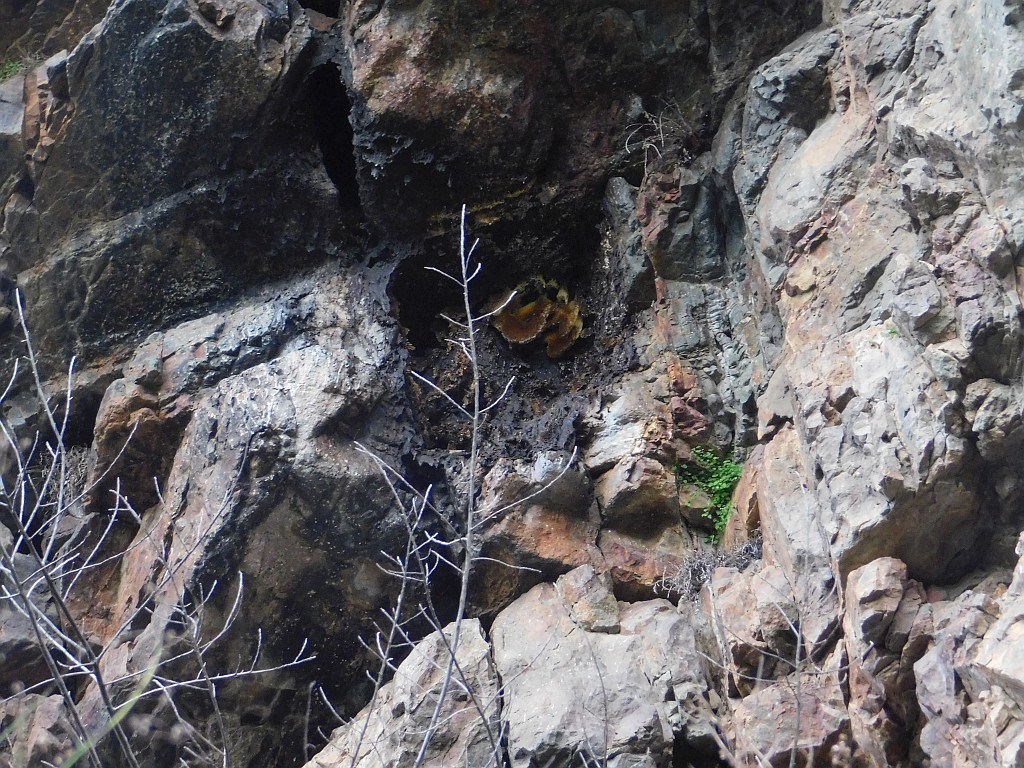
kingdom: Animalia
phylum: Arthropoda
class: Insecta
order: Hymenoptera
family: Apidae
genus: Apis
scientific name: Apis mellifera
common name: Honey bee
